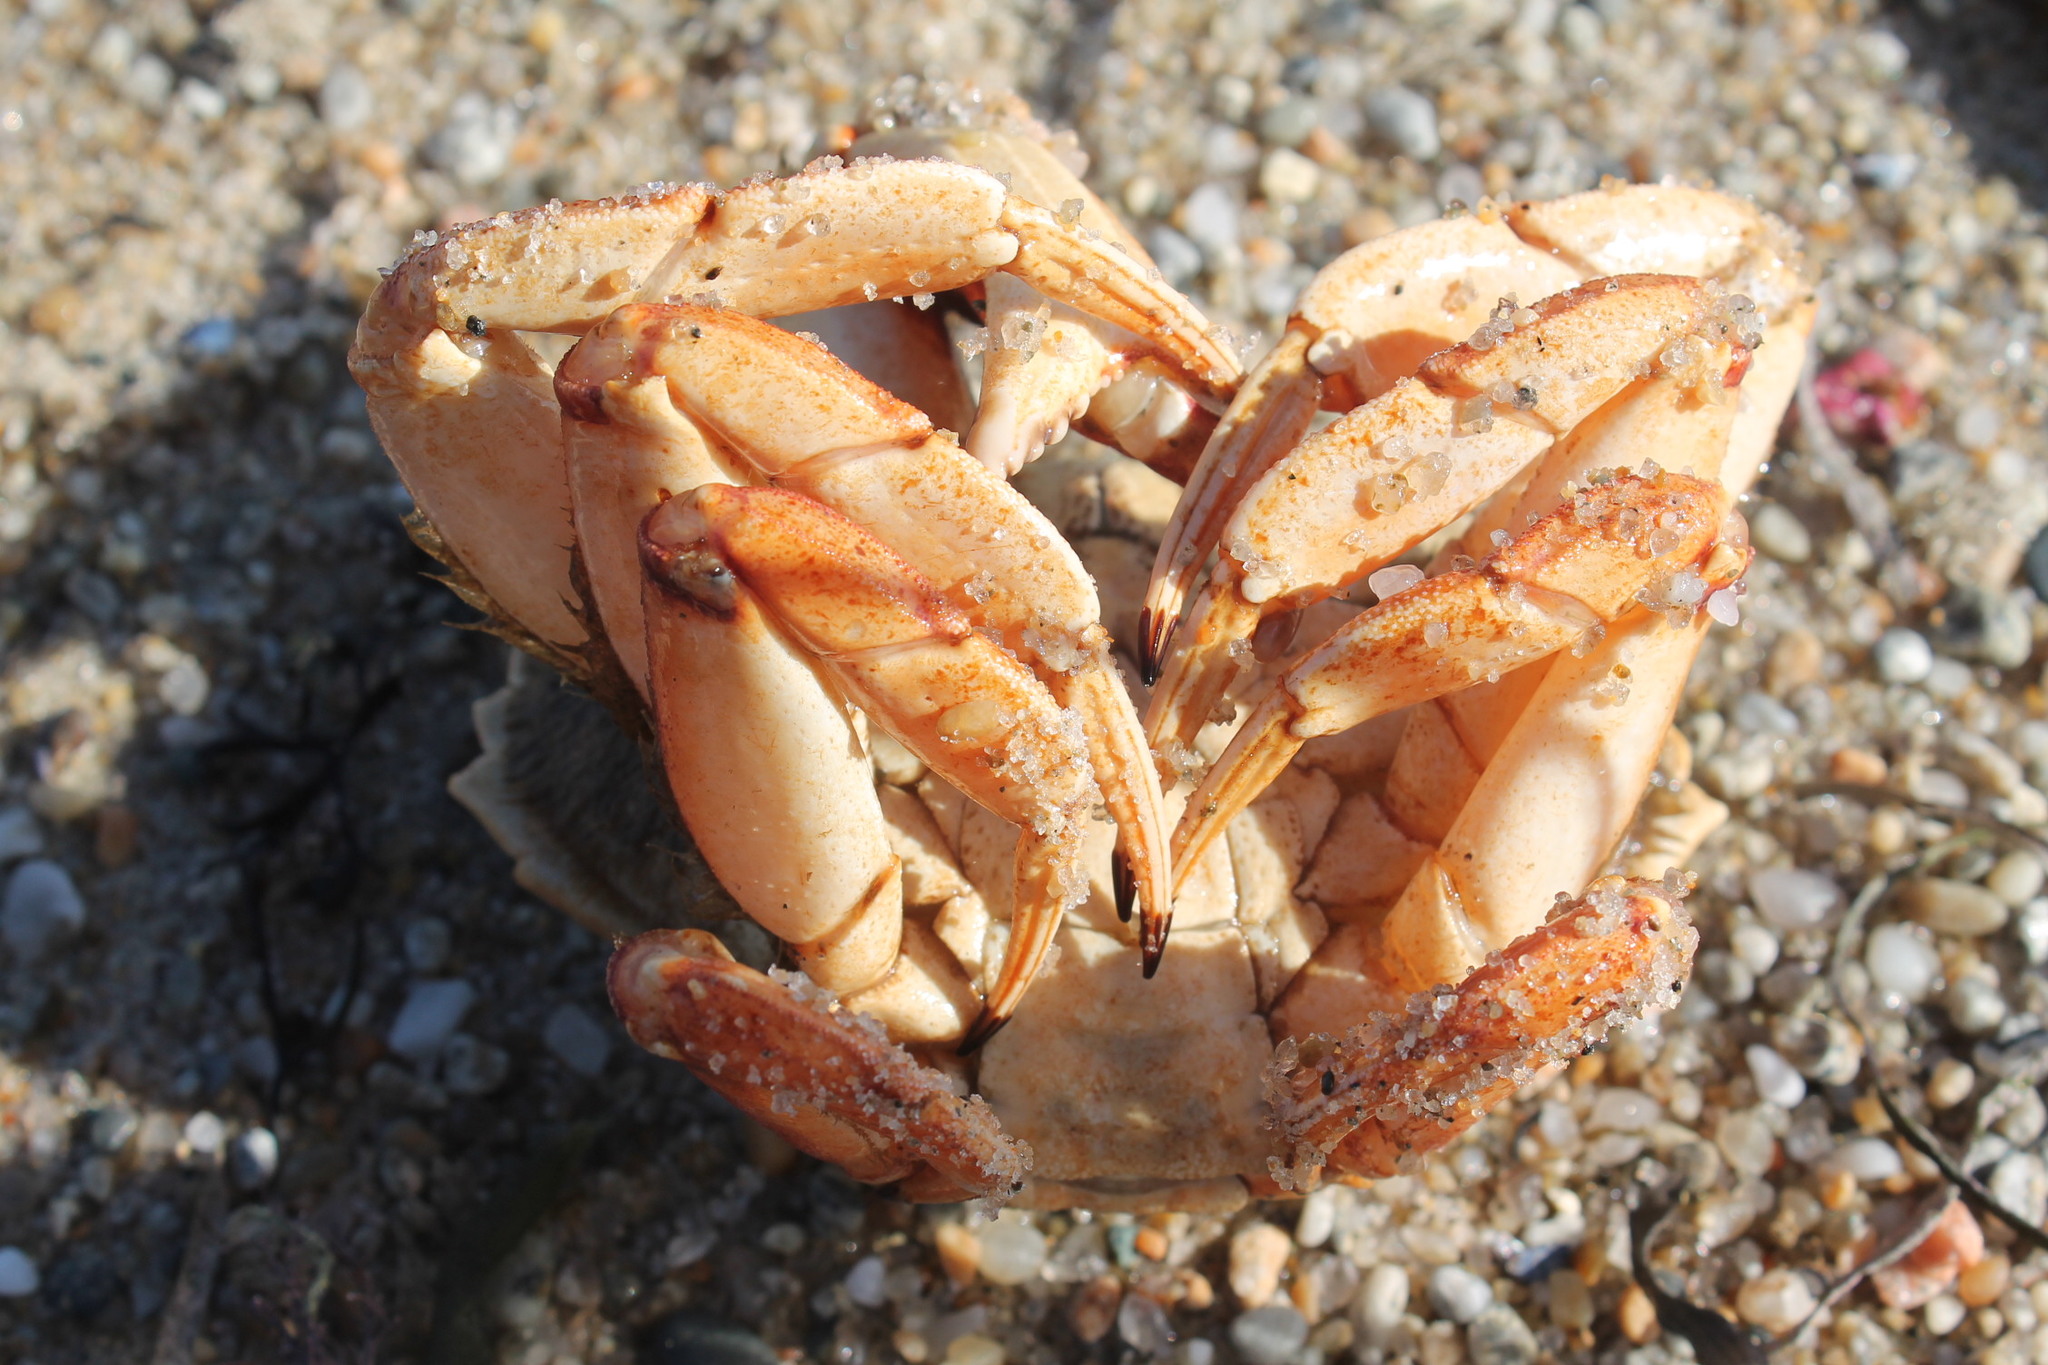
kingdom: Animalia
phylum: Arthropoda
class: Malacostraca
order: Decapoda
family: Cancridae
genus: Cancer
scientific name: Cancer irroratus
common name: Atlantic rock crab
